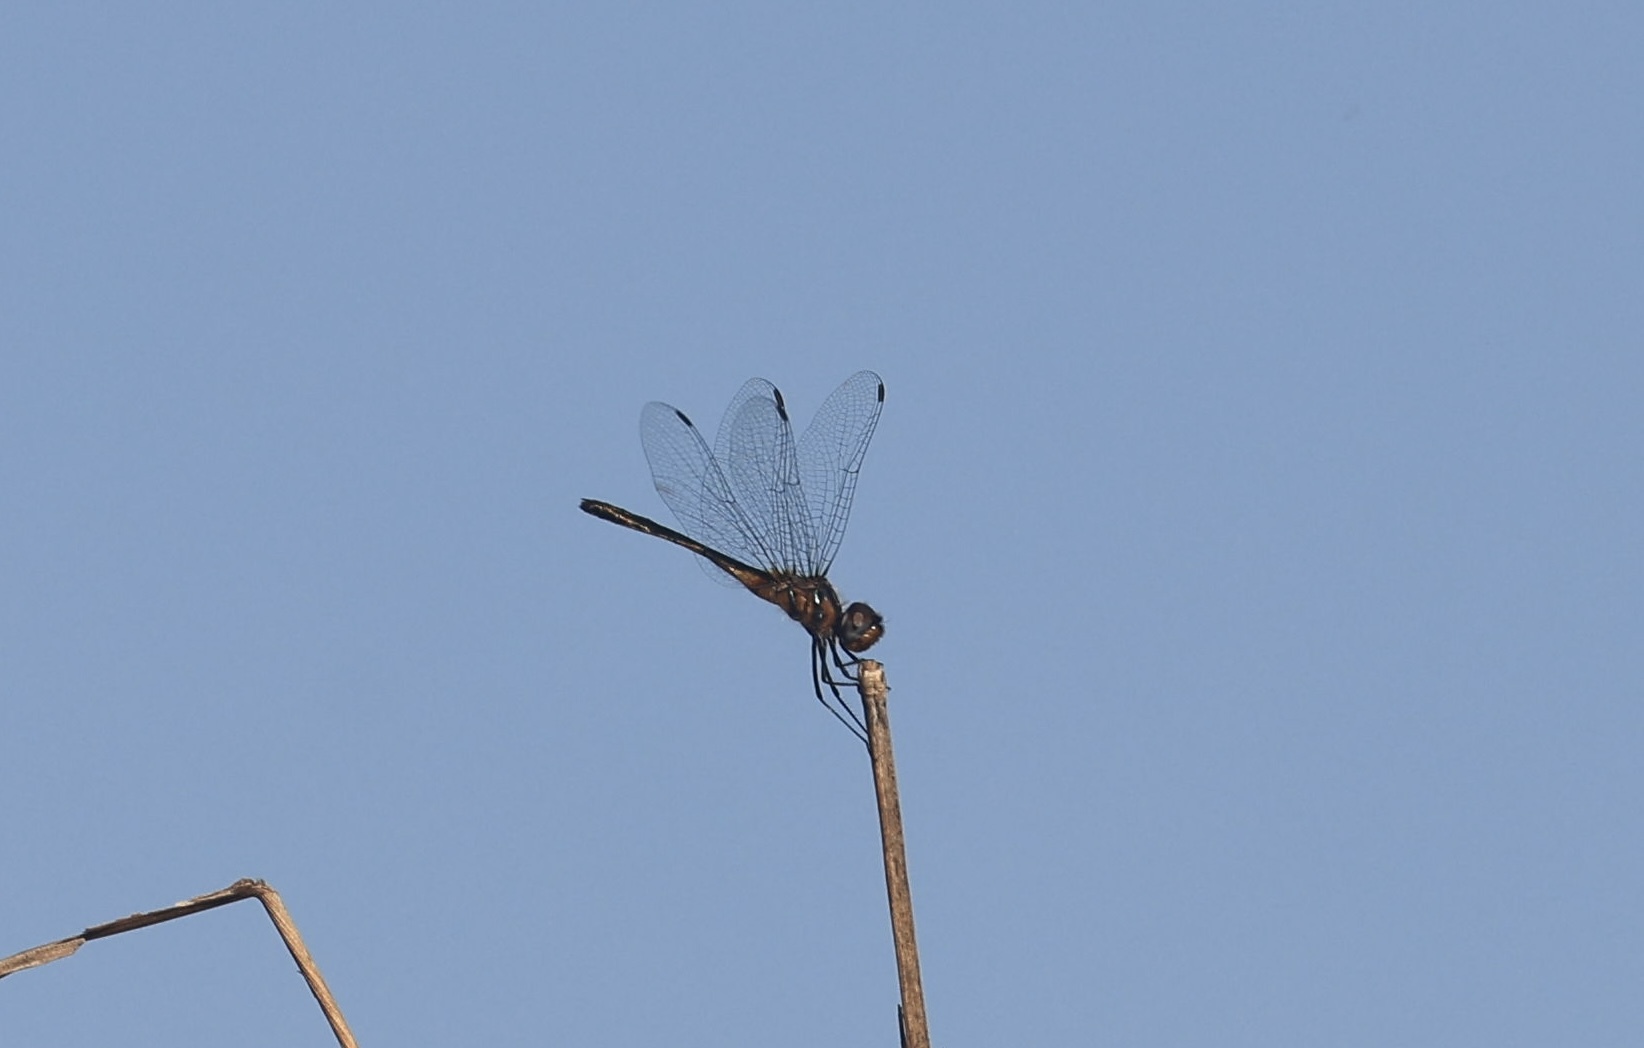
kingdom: Animalia
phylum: Arthropoda
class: Insecta
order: Odonata
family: Libellulidae
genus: Idiataphe
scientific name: Idiataphe cubensis
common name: Metallic pennant
